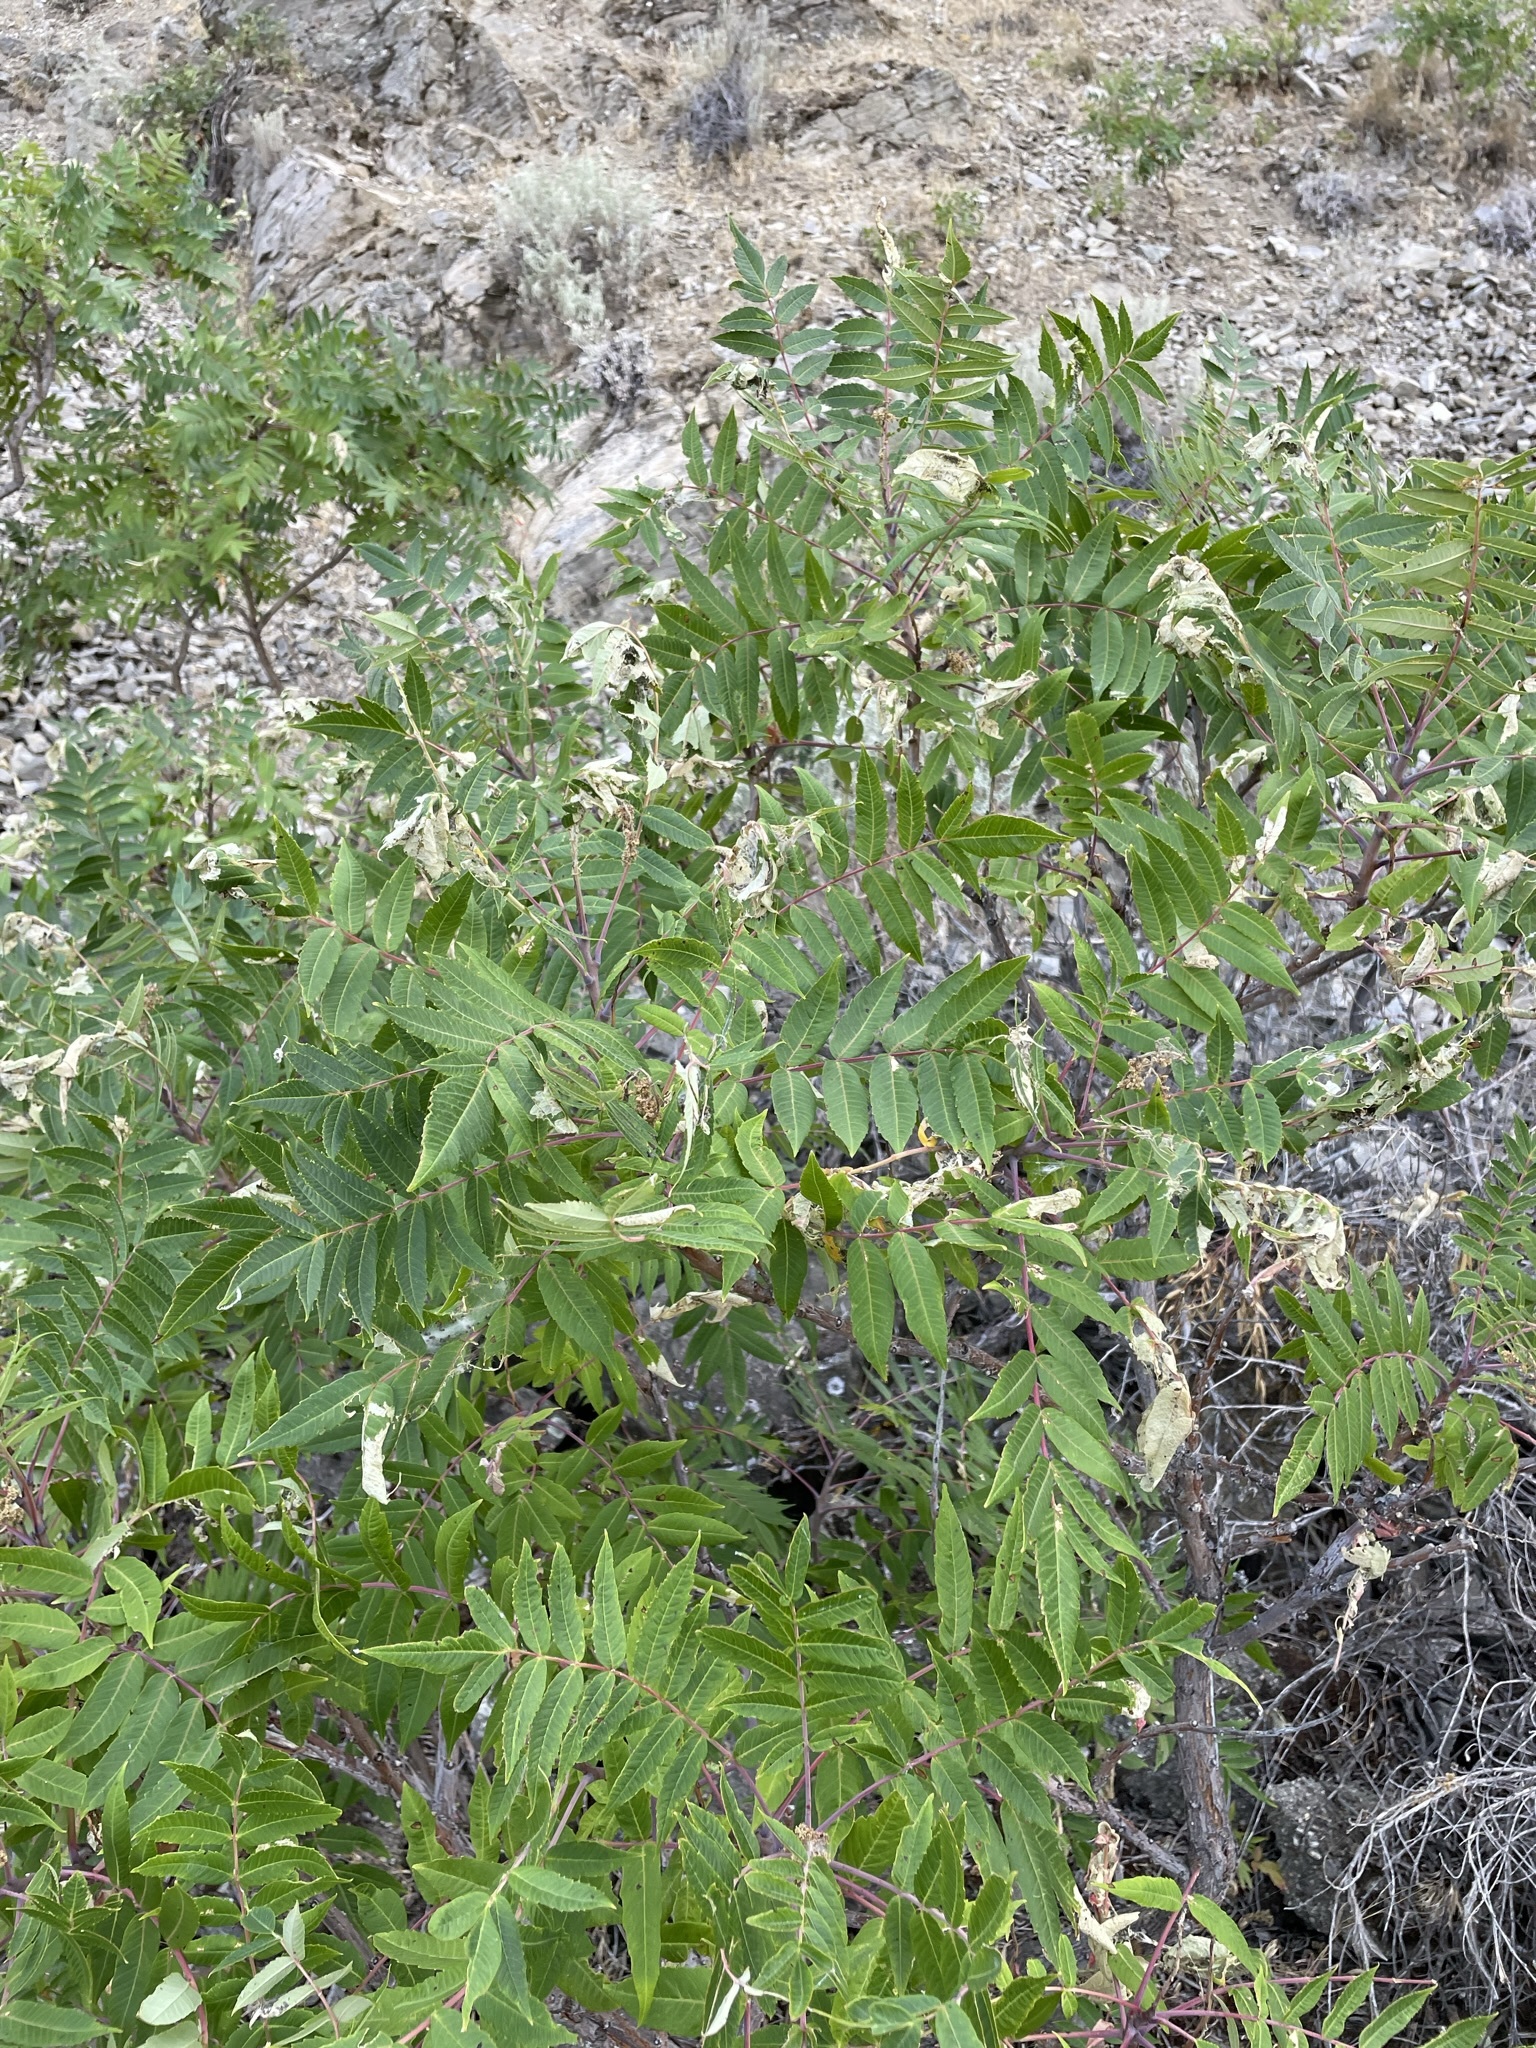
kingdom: Plantae
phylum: Tracheophyta
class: Magnoliopsida
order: Sapindales
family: Anacardiaceae
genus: Rhus
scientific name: Rhus glabra
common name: Scarlet sumac
